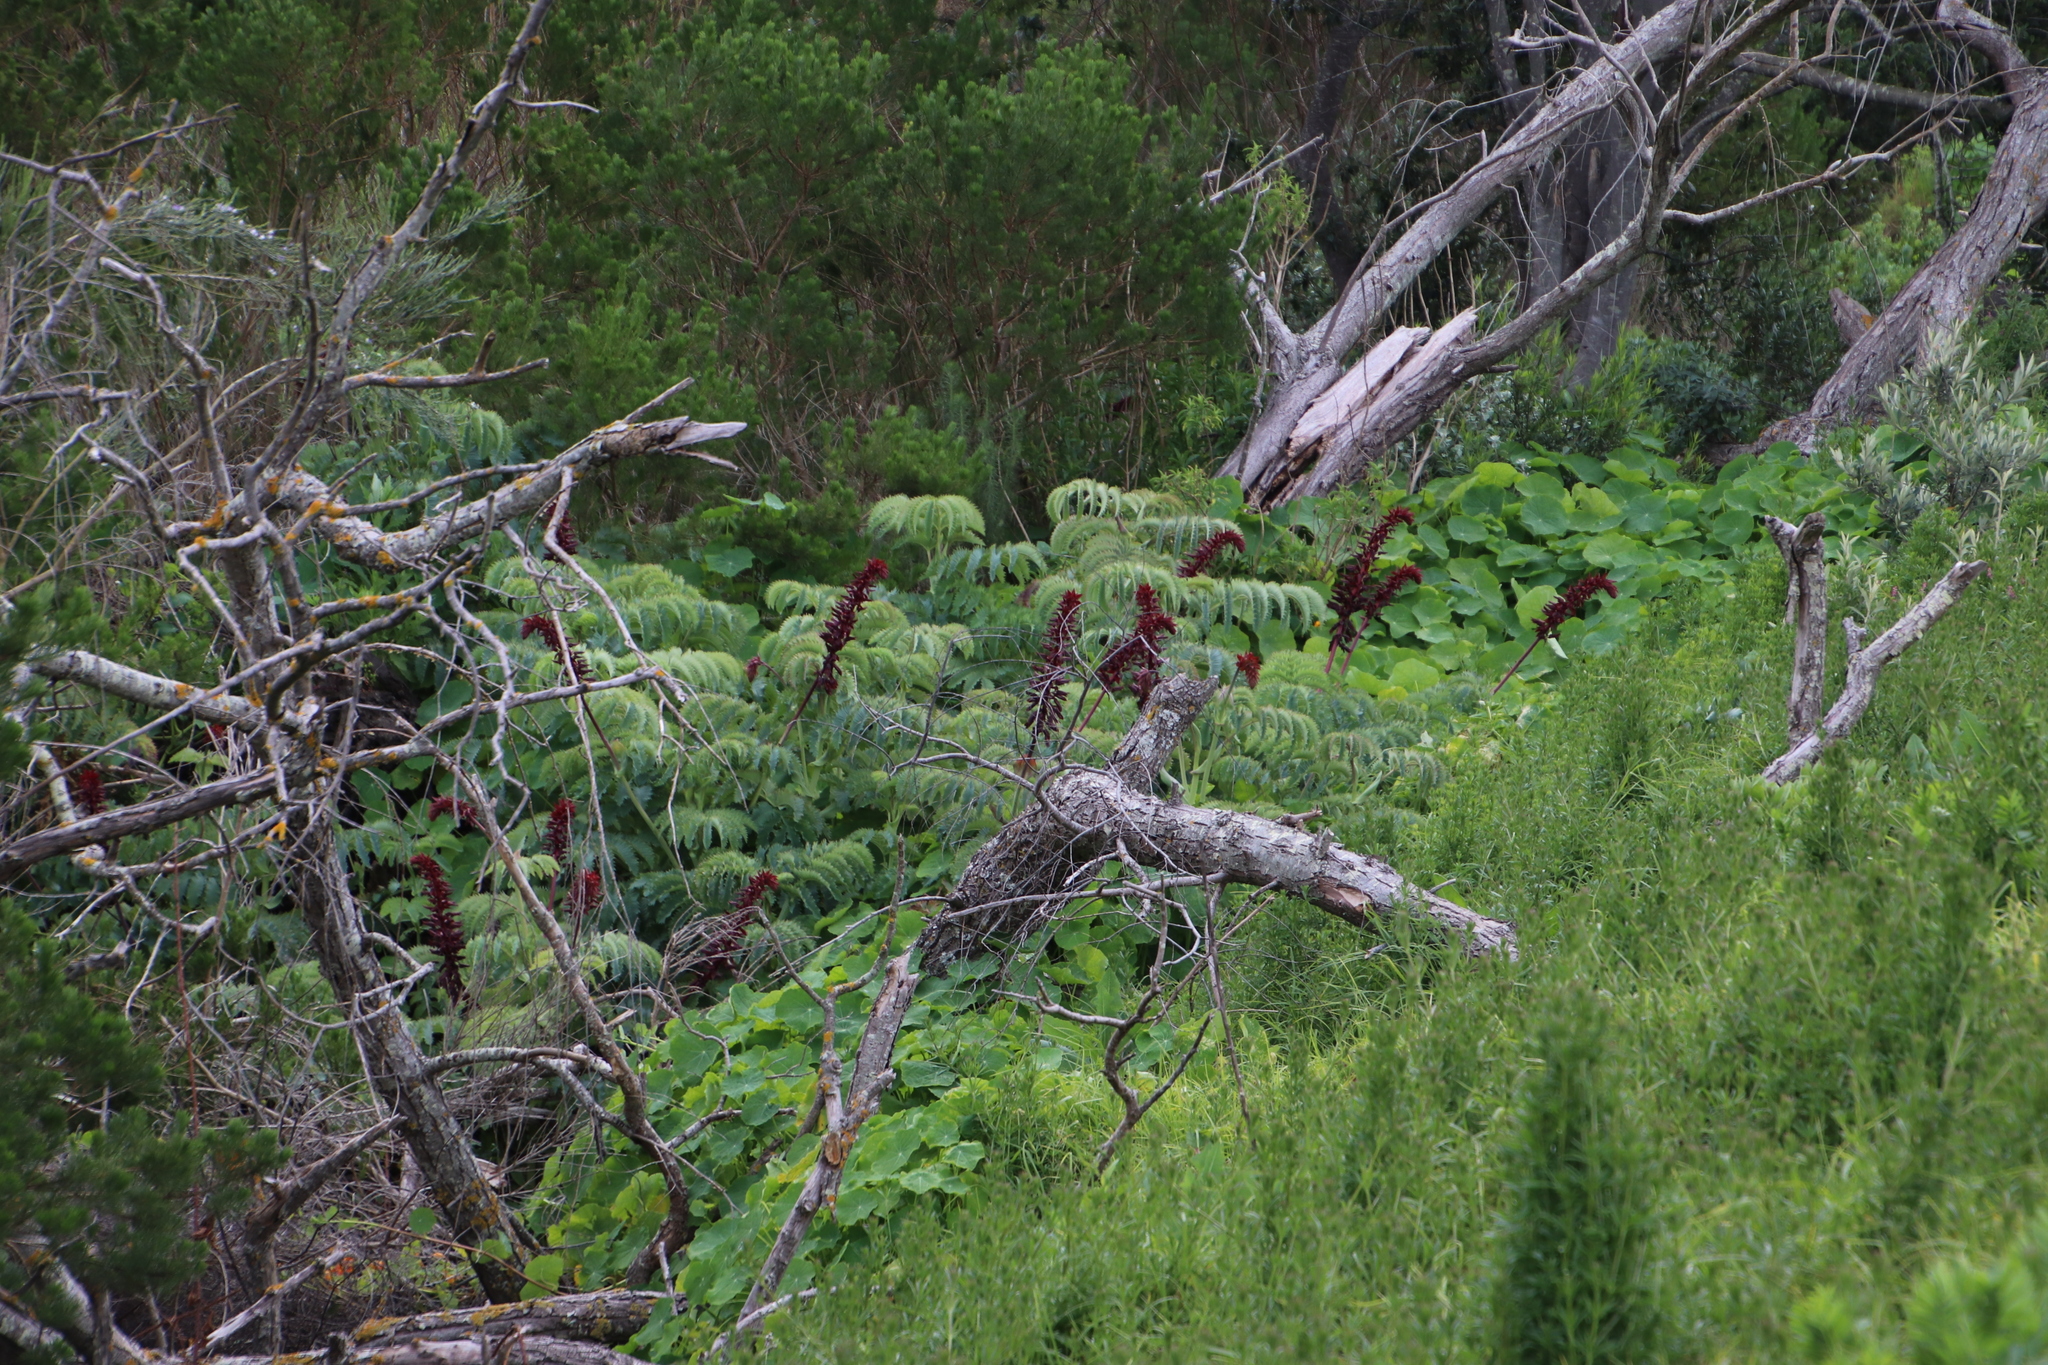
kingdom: Plantae
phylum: Tracheophyta
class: Magnoliopsida
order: Geraniales
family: Melianthaceae
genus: Melianthus
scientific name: Melianthus major
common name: Honey-flower
